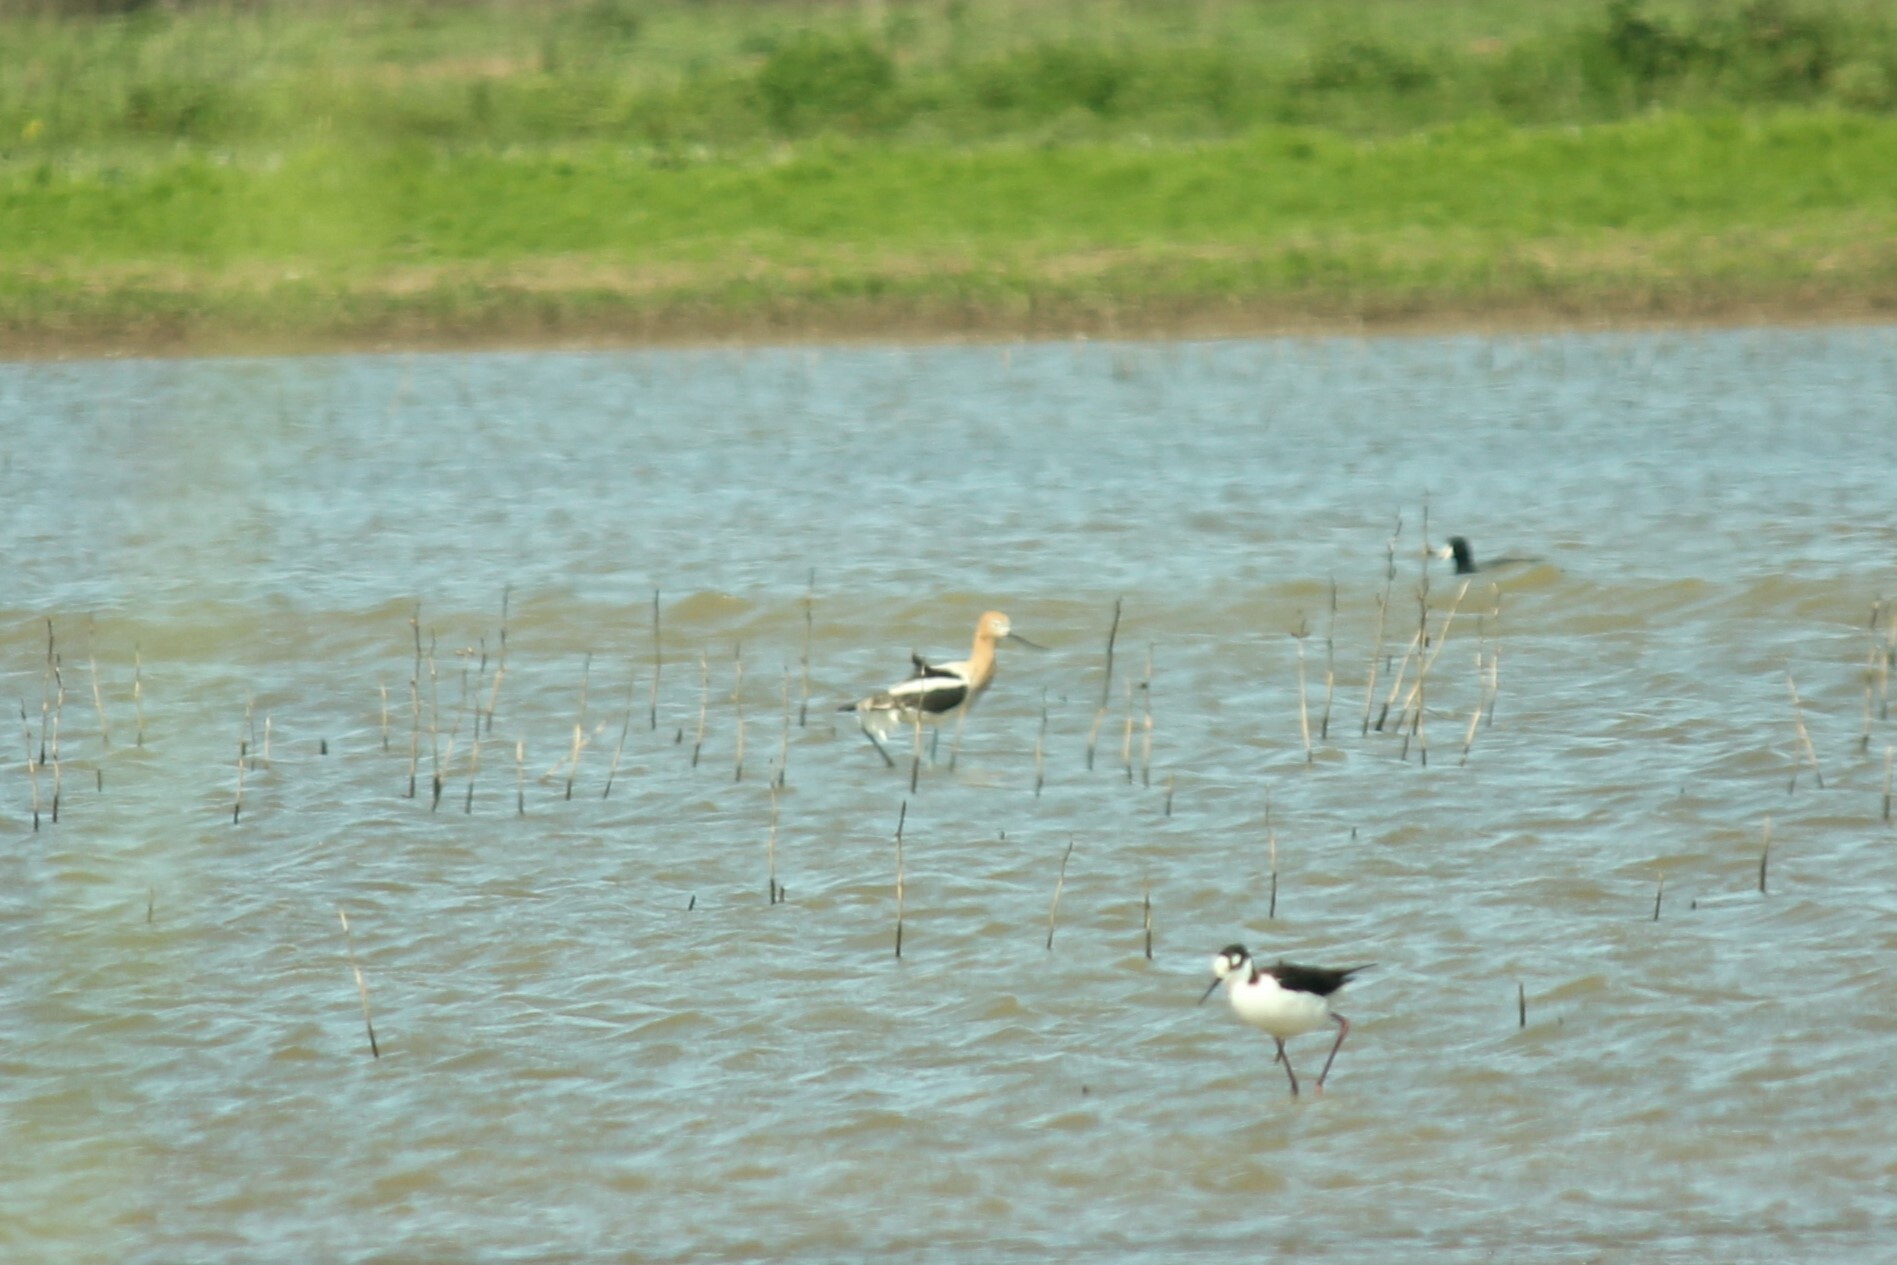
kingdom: Animalia
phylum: Chordata
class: Aves
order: Charadriiformes
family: Recurvirostridae
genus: Recurvirostra
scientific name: Recurvirostra americana
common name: American avocet
